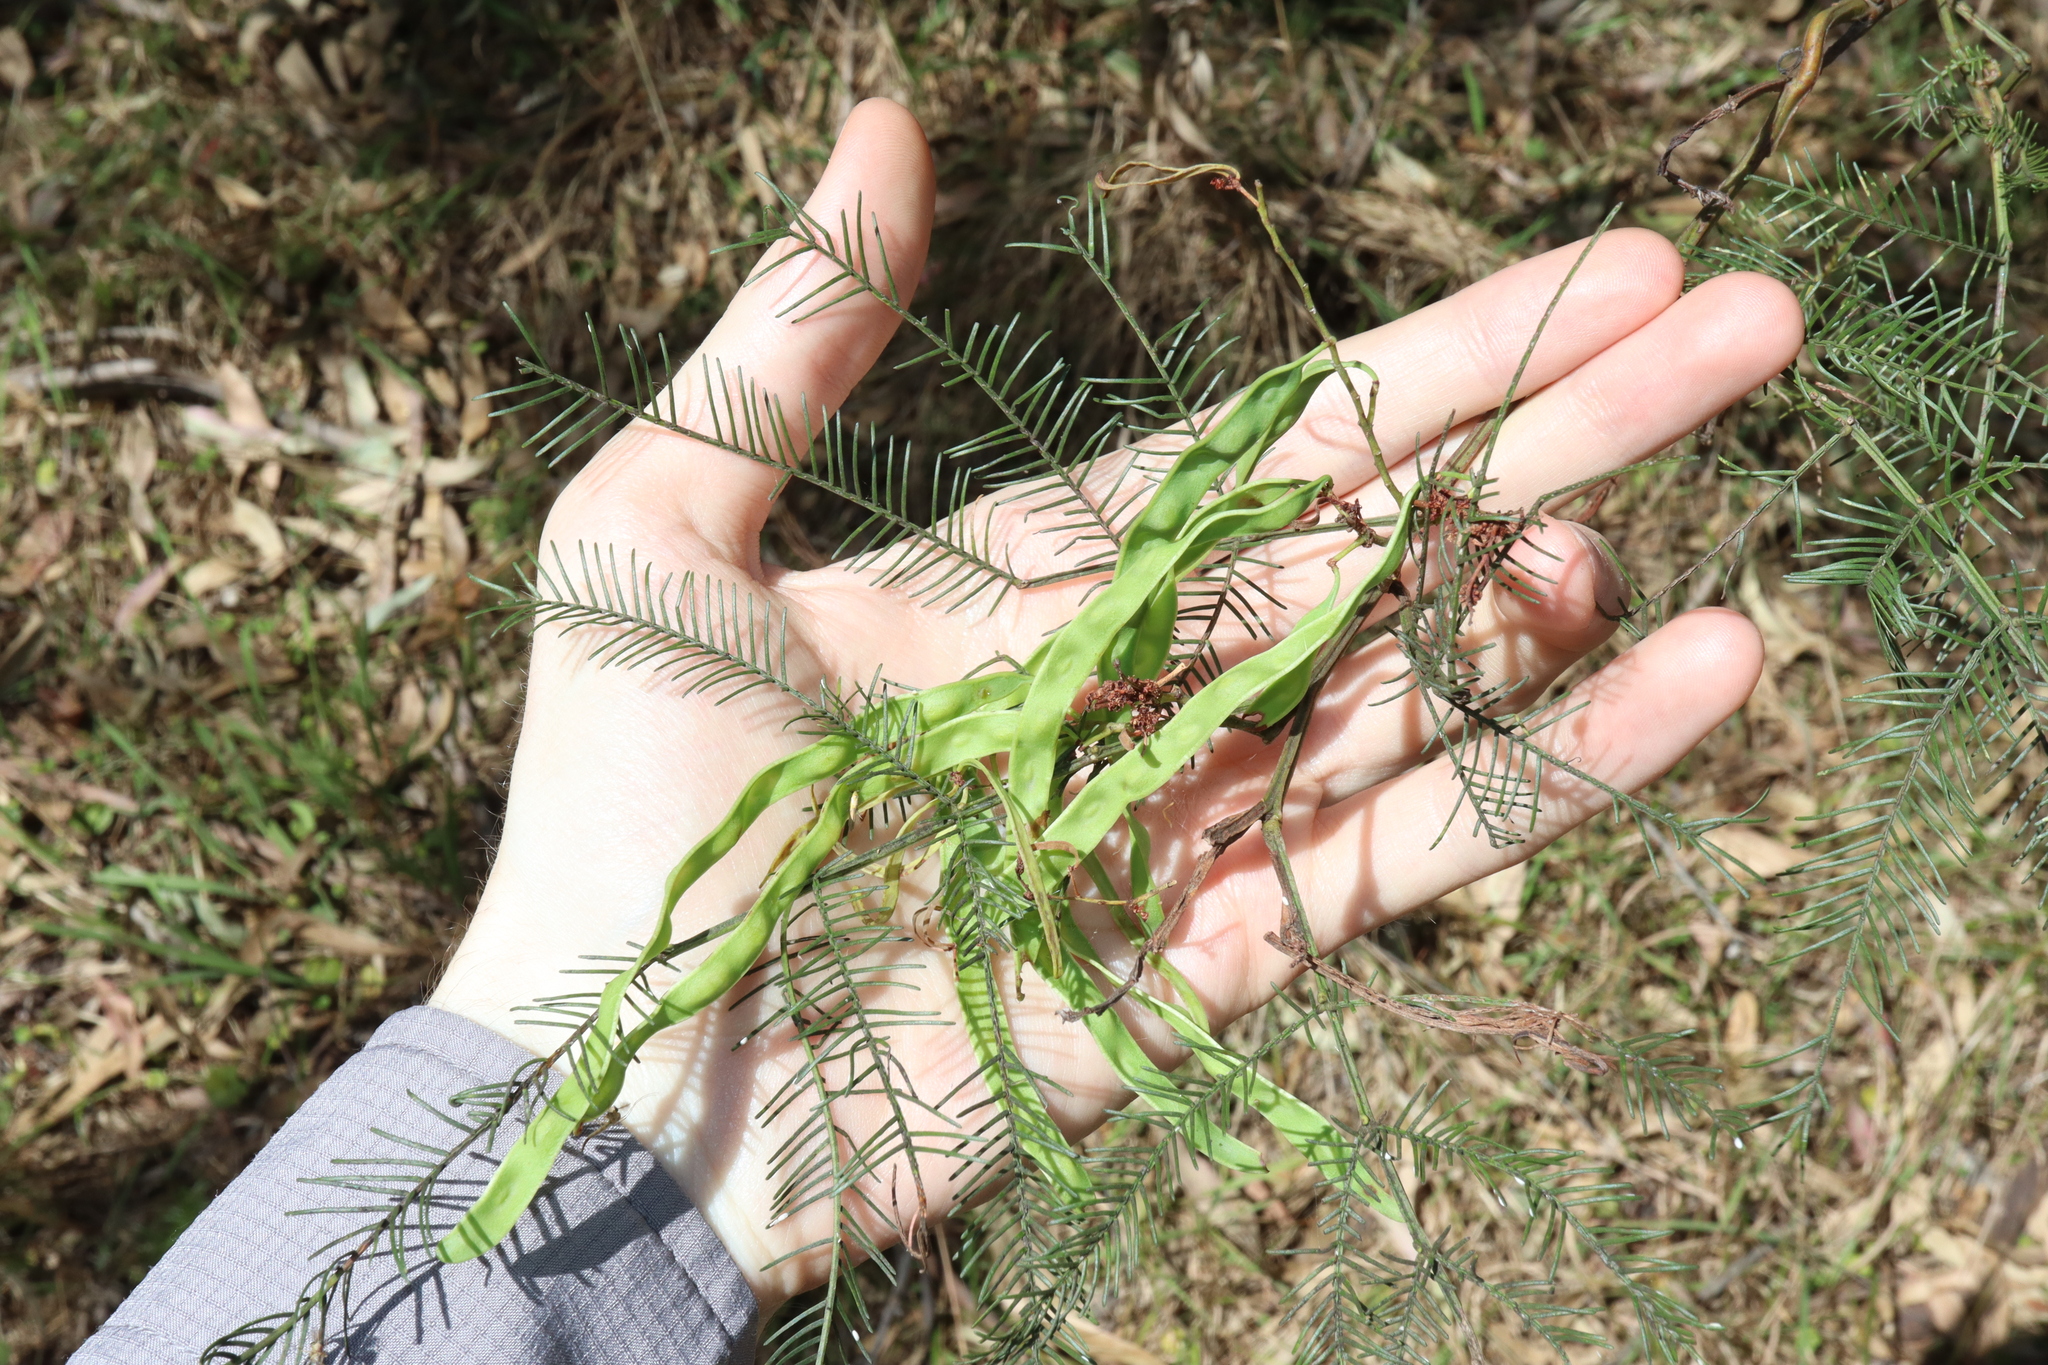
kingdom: Plantae
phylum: Tracheophyta
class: Magnoliopsida
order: Fabales
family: Fabaceae
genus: Acacia
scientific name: Acacia decurrens
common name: Green wattle
